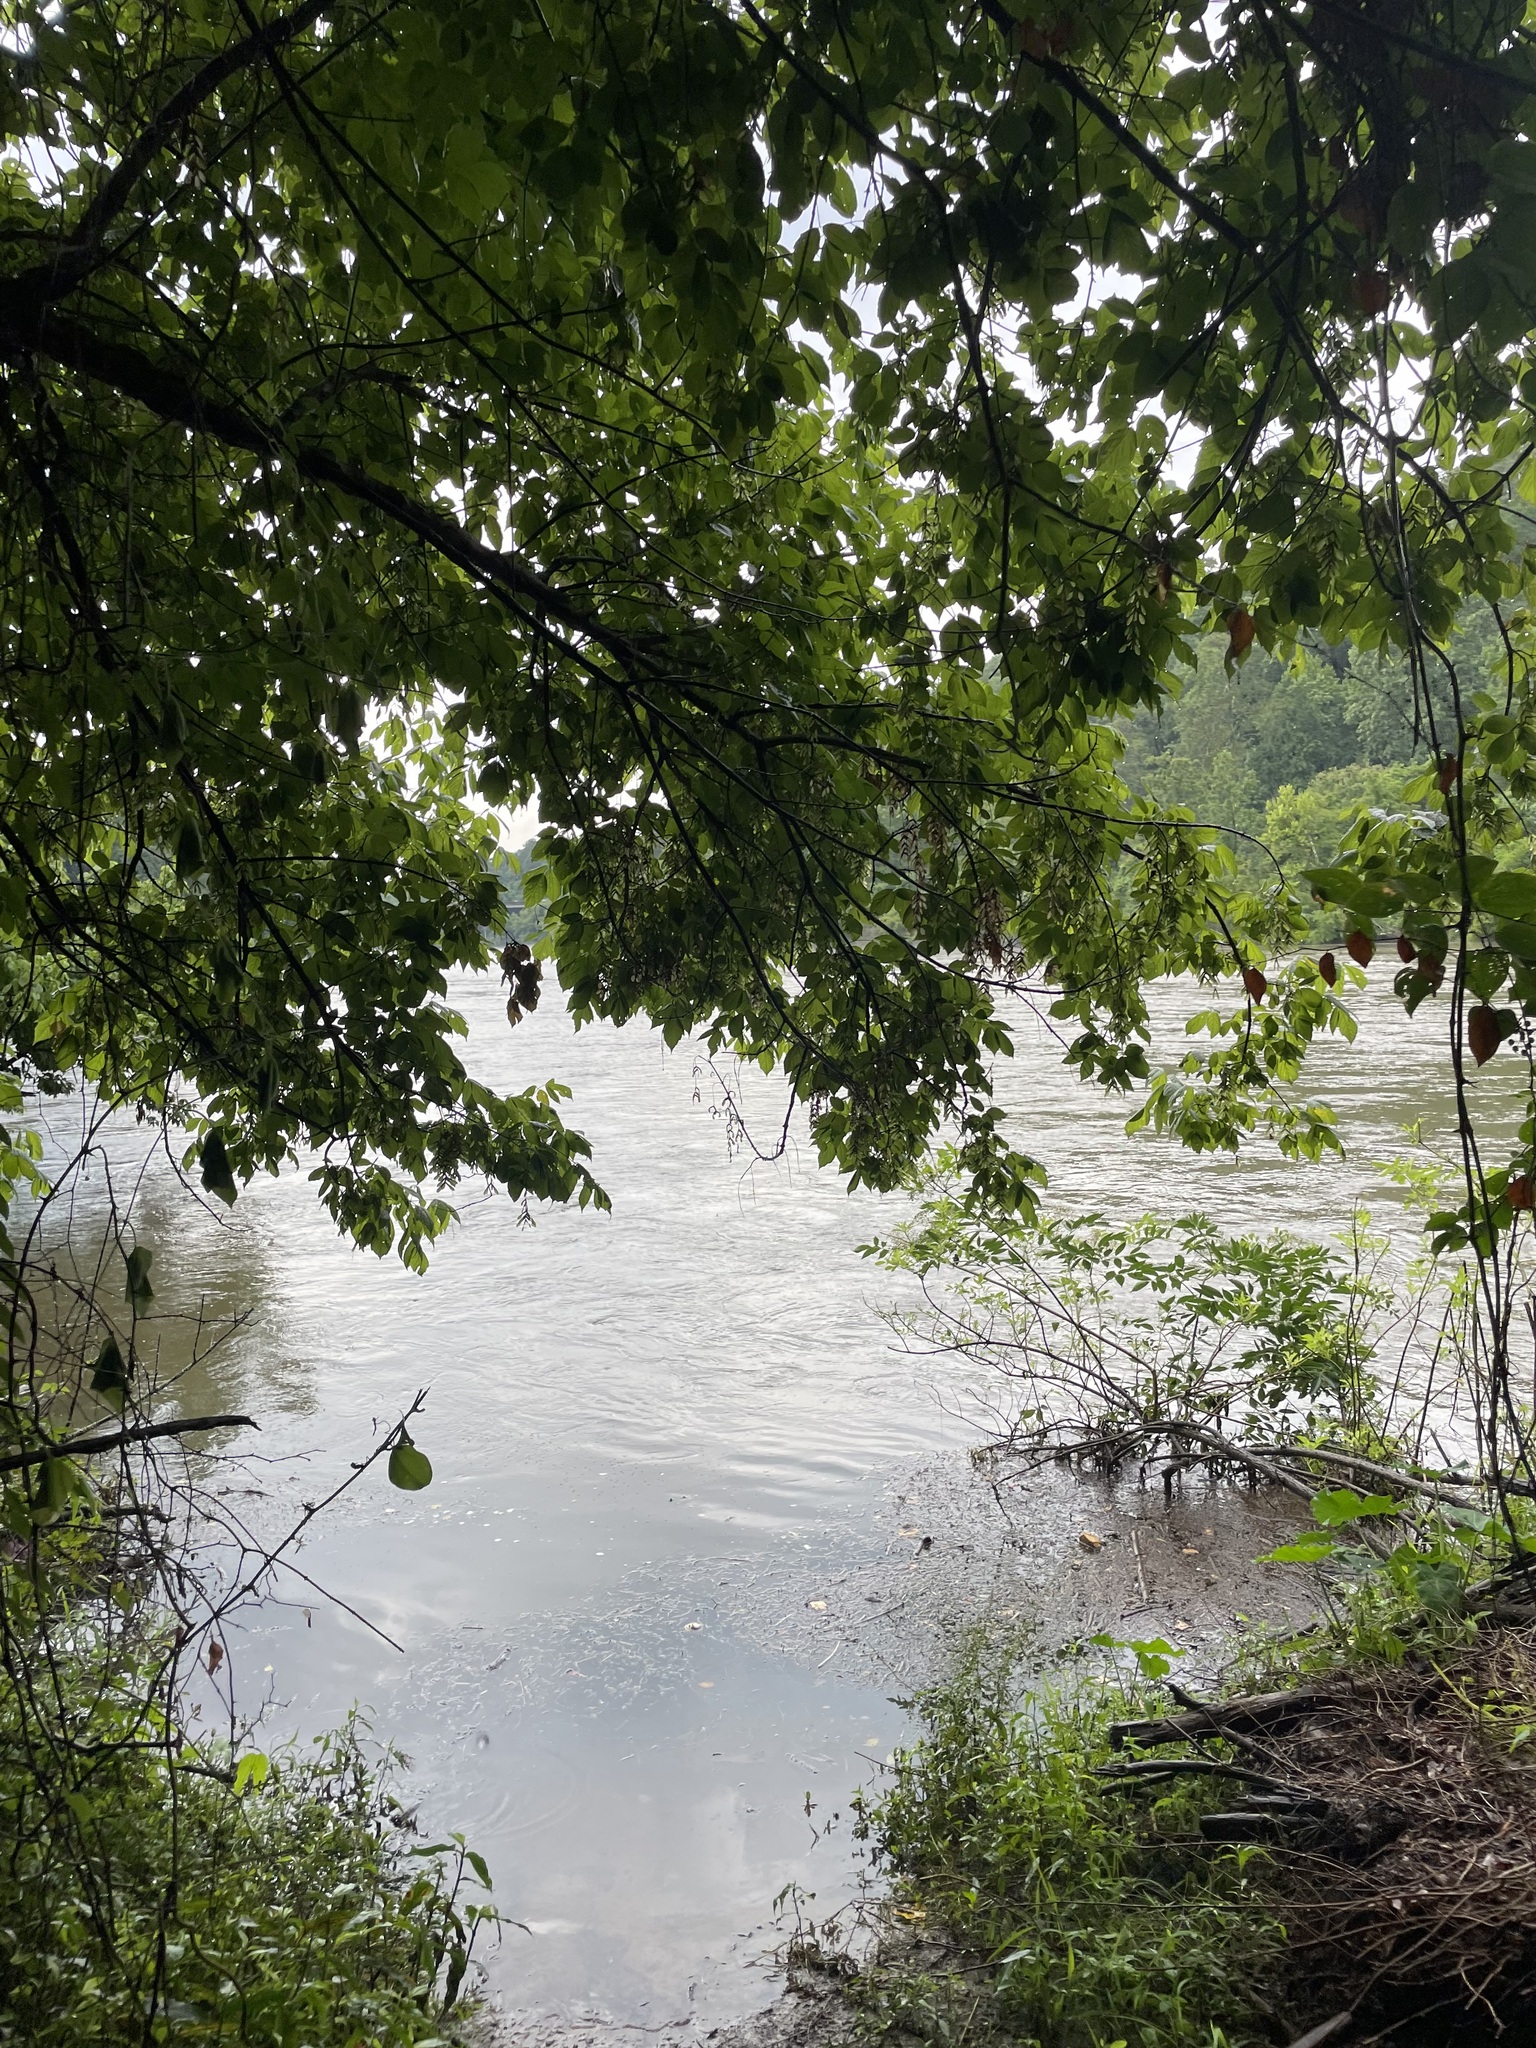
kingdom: Plantae
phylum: Tracheophyta
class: Magnoliopsida
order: Sapindales
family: Sapindaceae
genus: Acer
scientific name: Acer negundo
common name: Ashleaf maple
